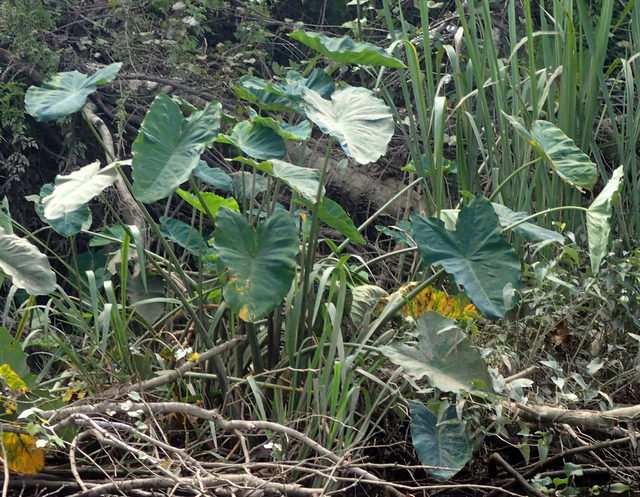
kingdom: Plantae
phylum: Tracheophyta
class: Liliopsida
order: Alismatales
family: Araceae
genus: Colocasia
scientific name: Colocasia esculenta
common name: Taro
